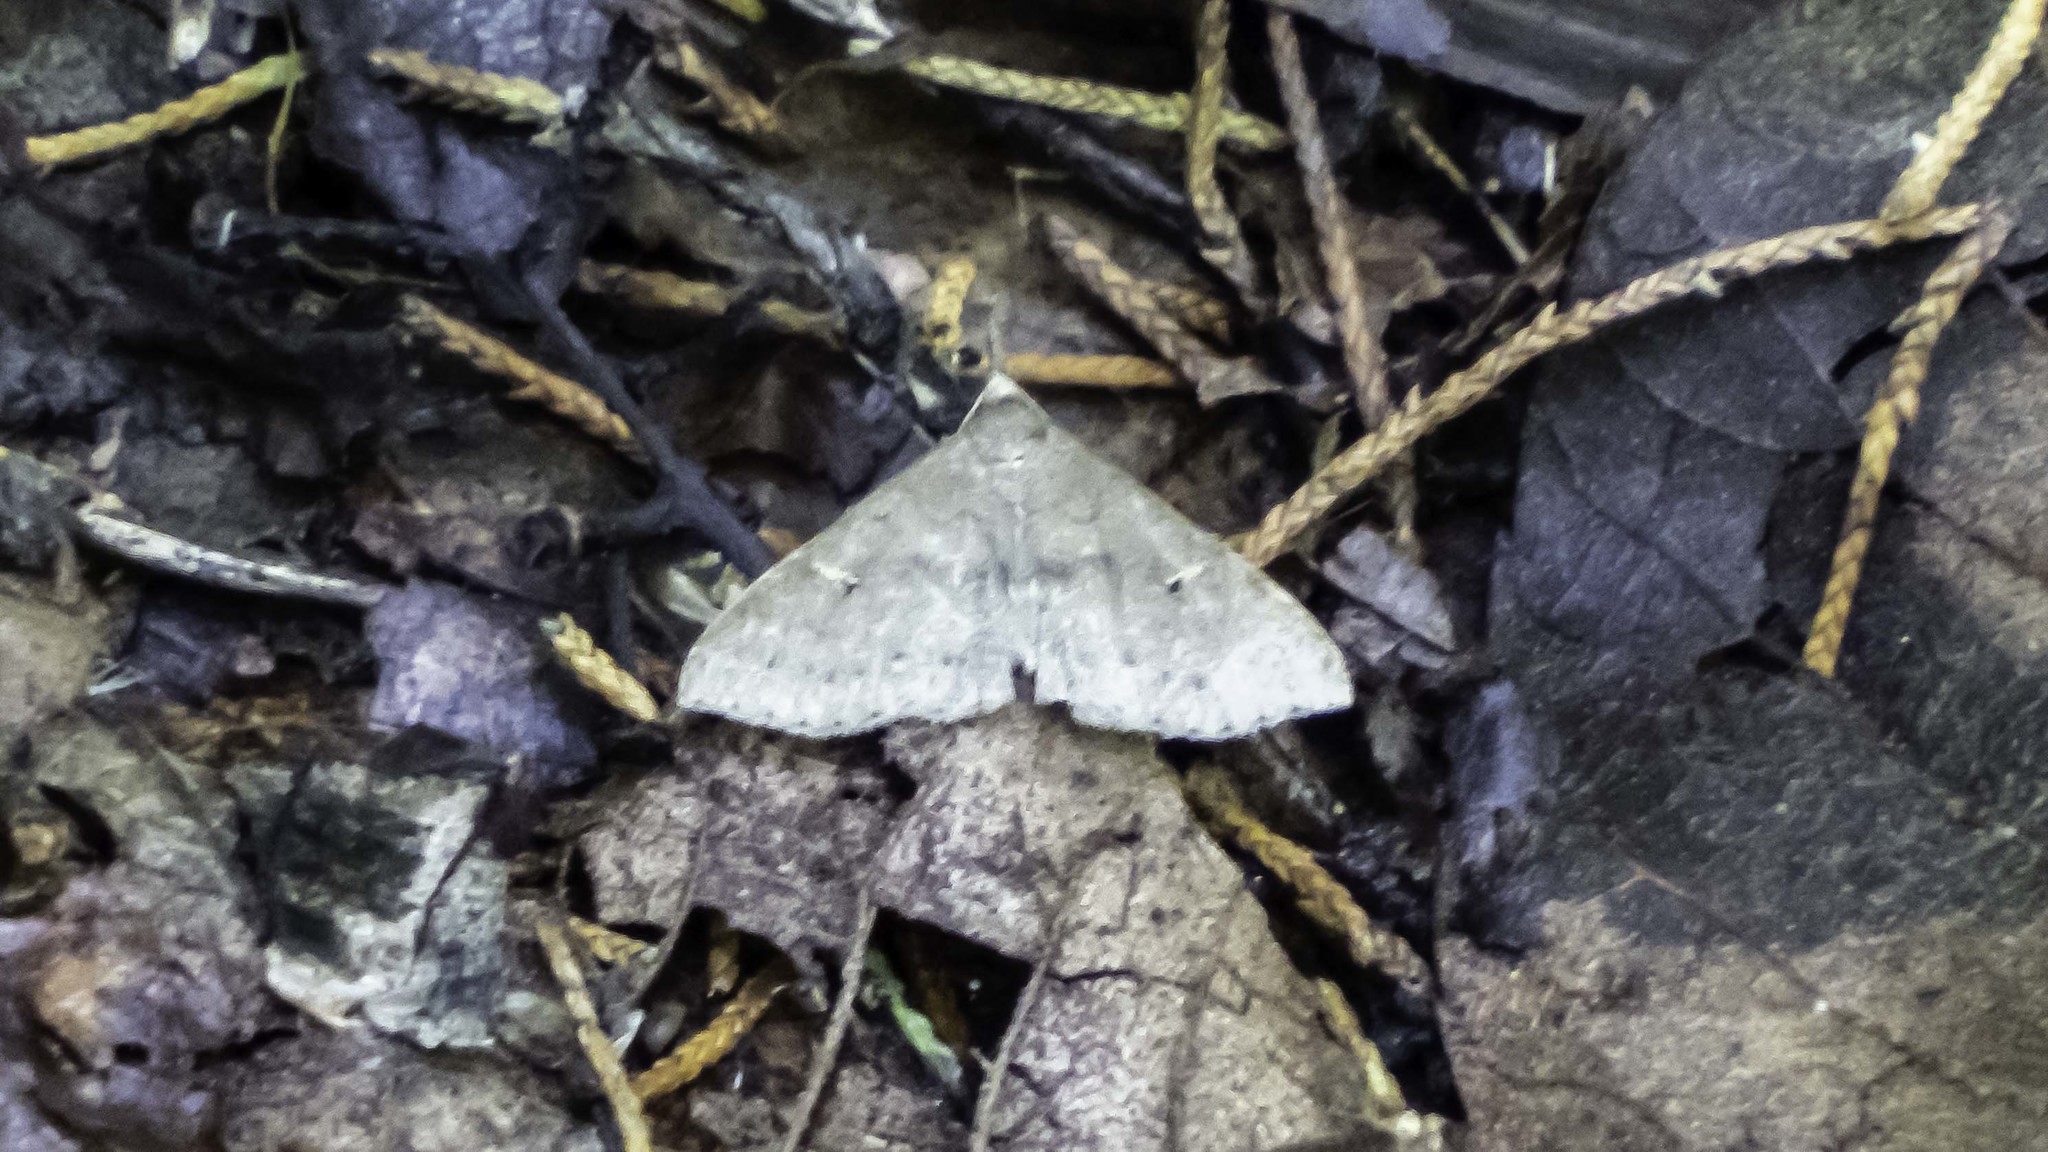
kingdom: Animalia
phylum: Arthropoda
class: Insecta
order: Lepidoptera
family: Erebidae
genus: Renia
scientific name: Renia adspergillus
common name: Speckled renia moth
